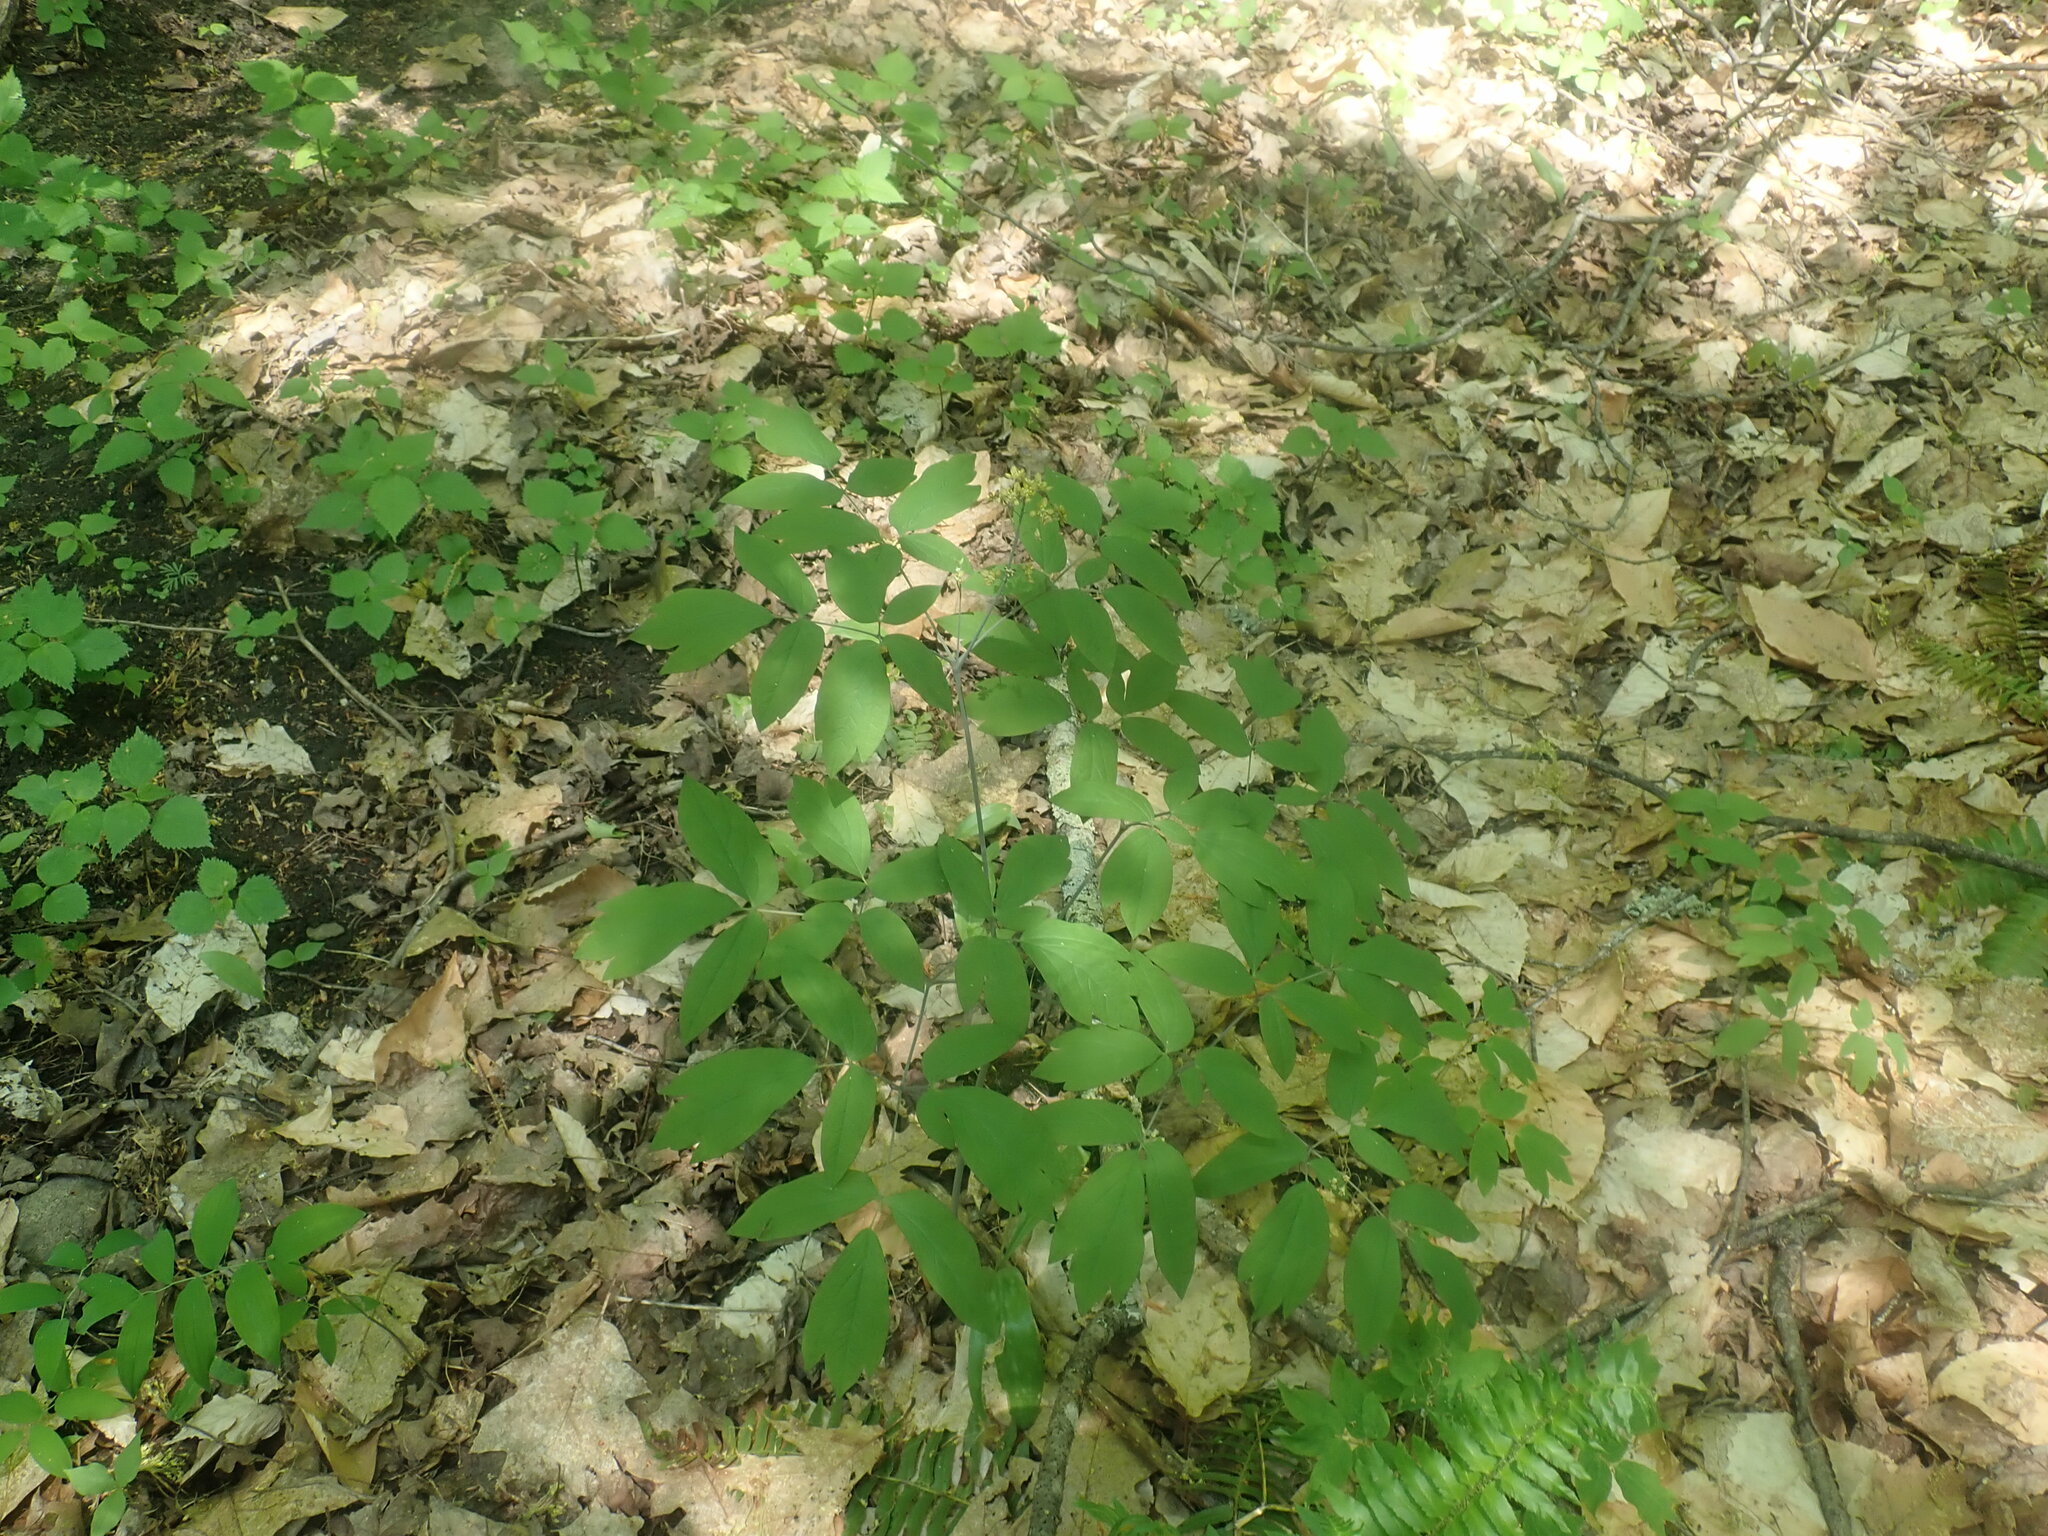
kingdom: Plantae
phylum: Tracheophyta
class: Magnoliopsida
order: Ranunculales
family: Berberidaceae
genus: Caulophyllum
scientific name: Caulophyllum thalictroides
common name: Blue cohosh
